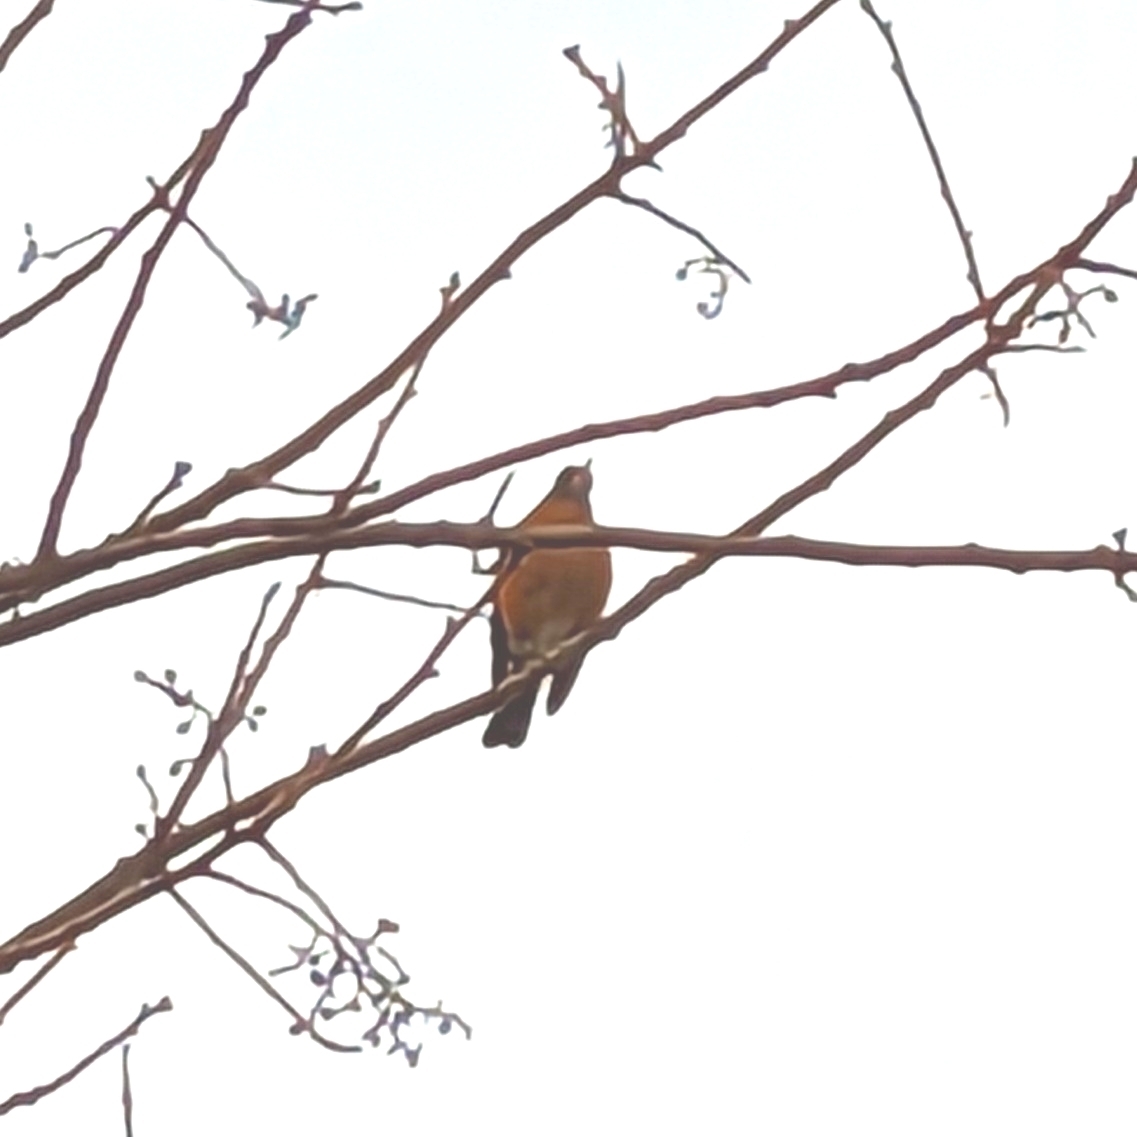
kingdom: Animalia
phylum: Chordata
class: Aves
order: Passeriformes
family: Turdidae
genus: Turdus
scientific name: Turdus migratorius
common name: American robin
